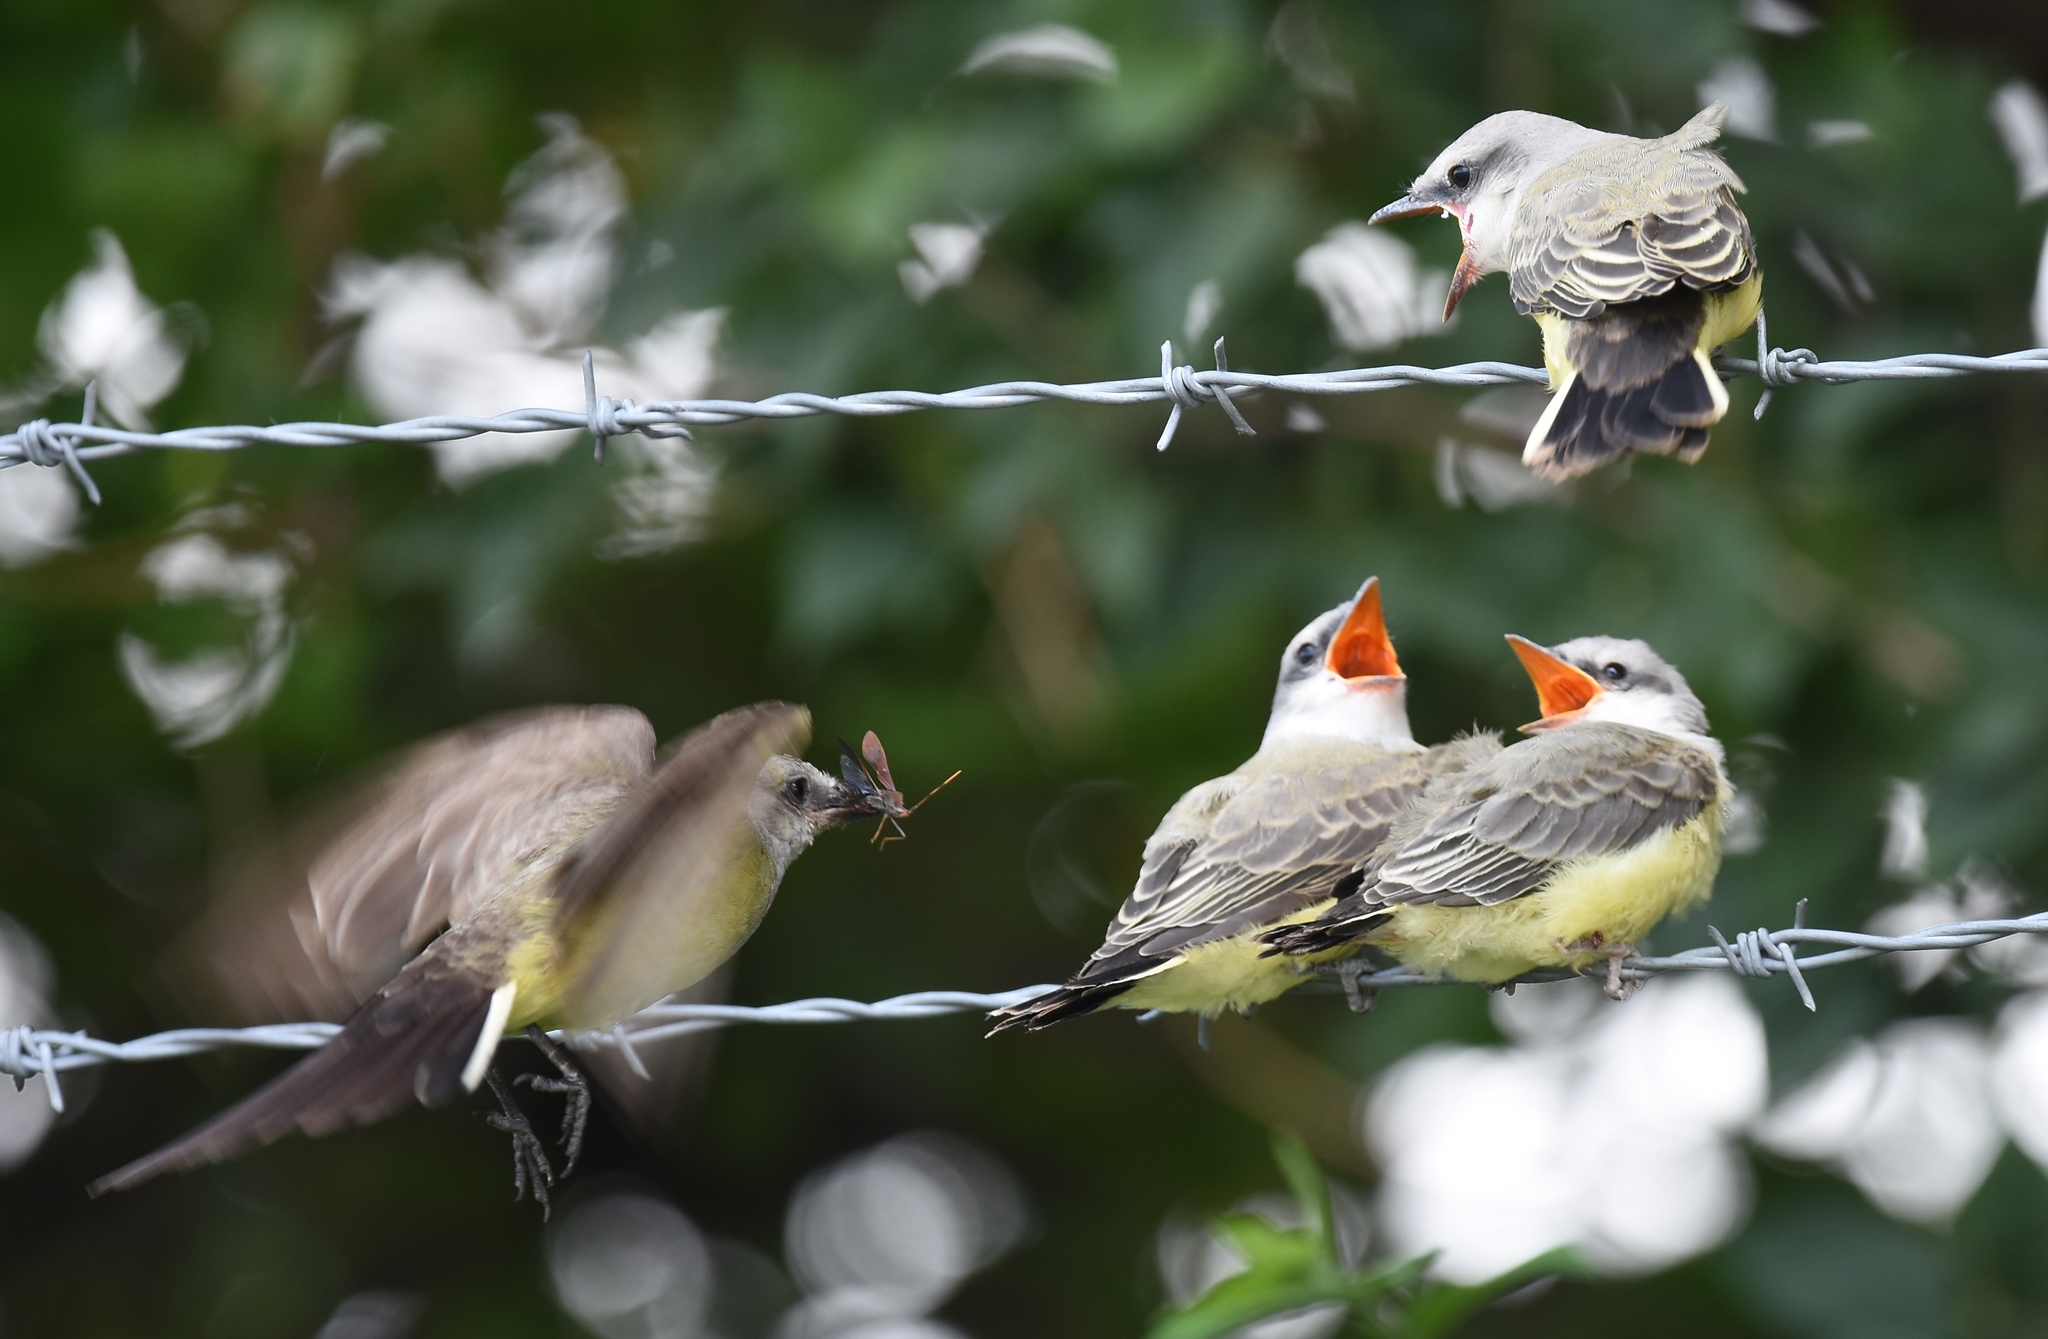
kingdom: Animalia
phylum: Chordata
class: Aves
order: Passeriformes
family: Tyrannidae
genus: Tyrannus
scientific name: Tyrannus verticalis
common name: Western kingbird
